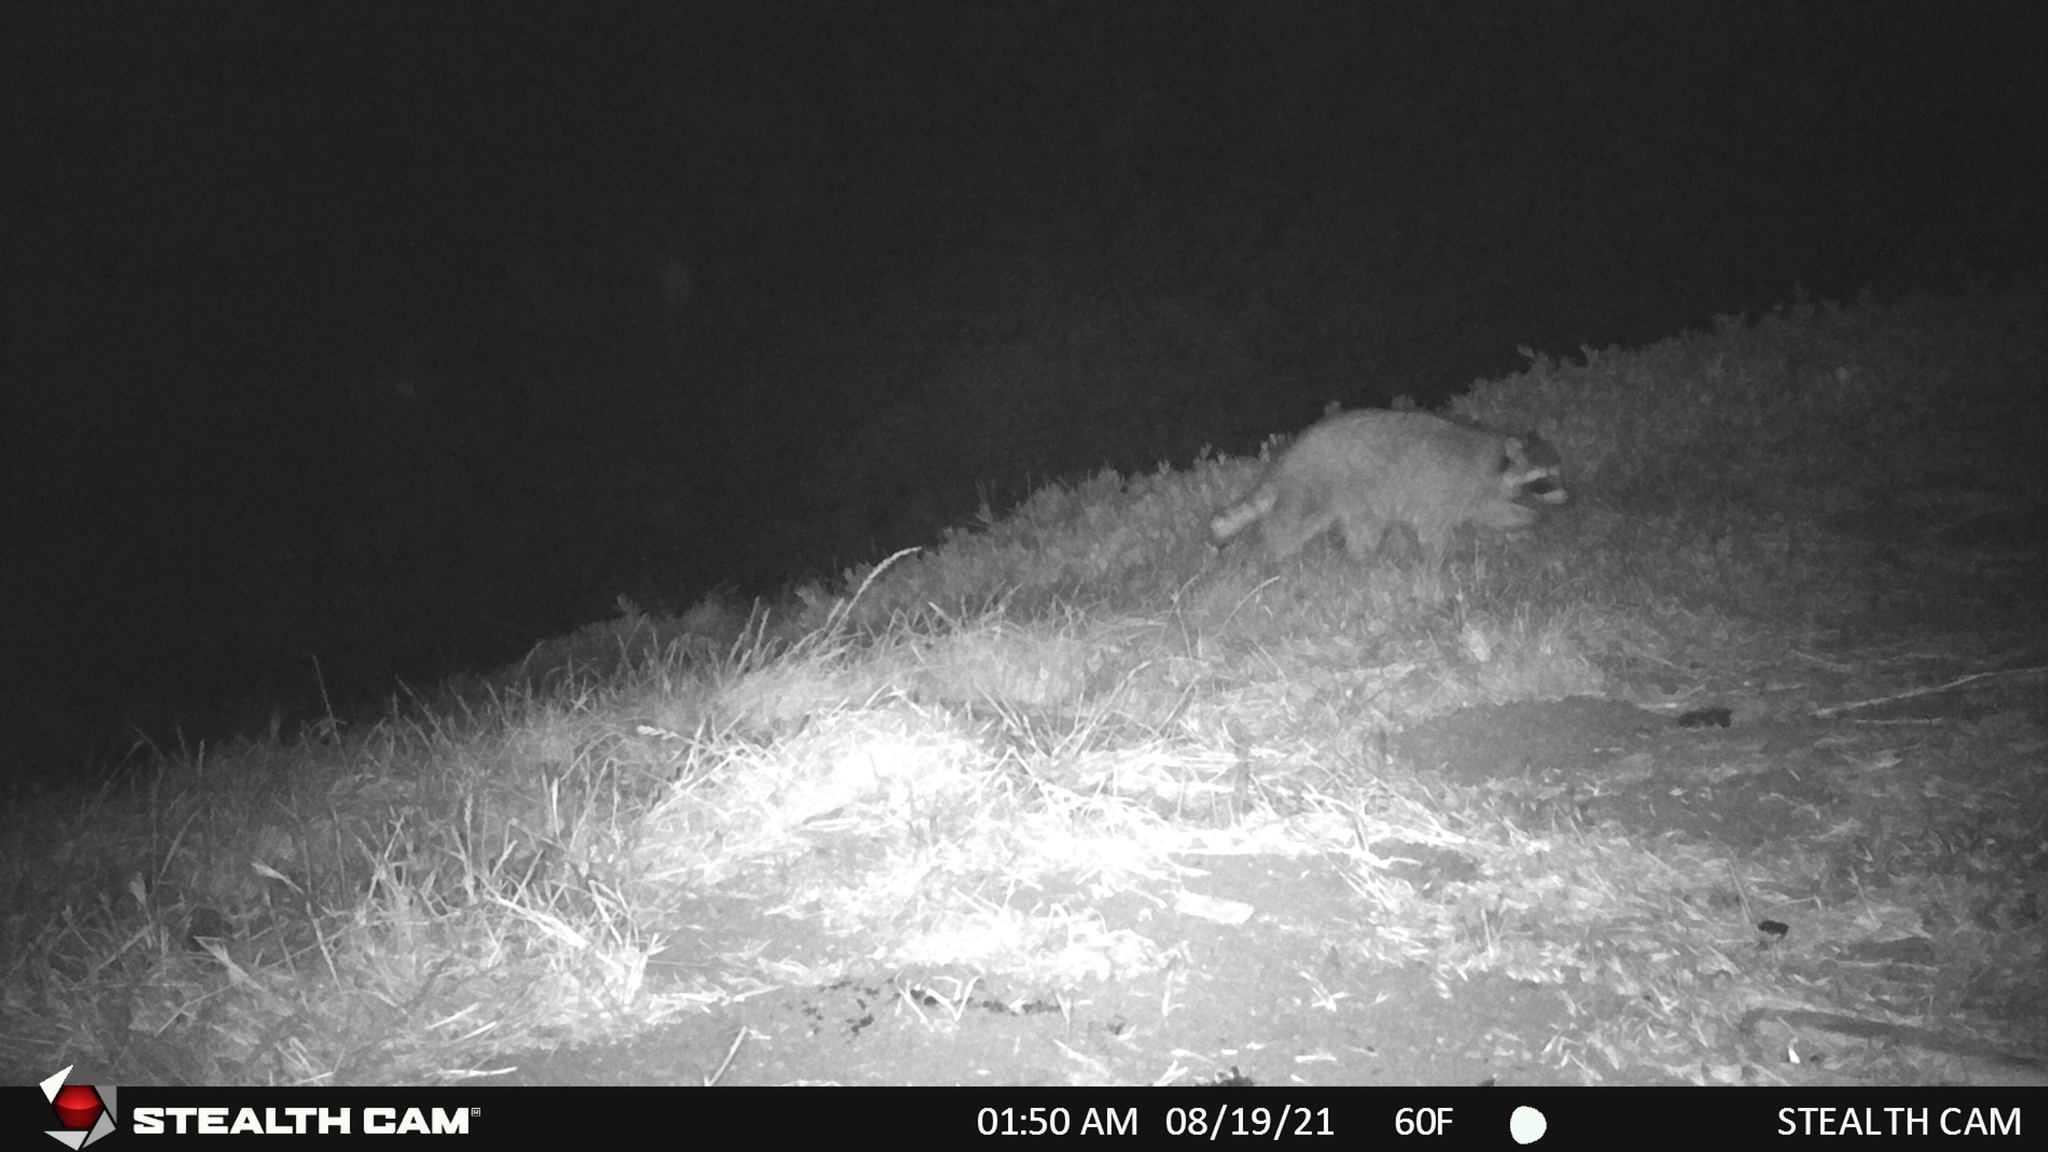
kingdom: Animalia
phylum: Chordata
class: Mammalia
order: Carnivora
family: Procyonidae
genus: Procyon
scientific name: Procyon lotor
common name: Raccoon
